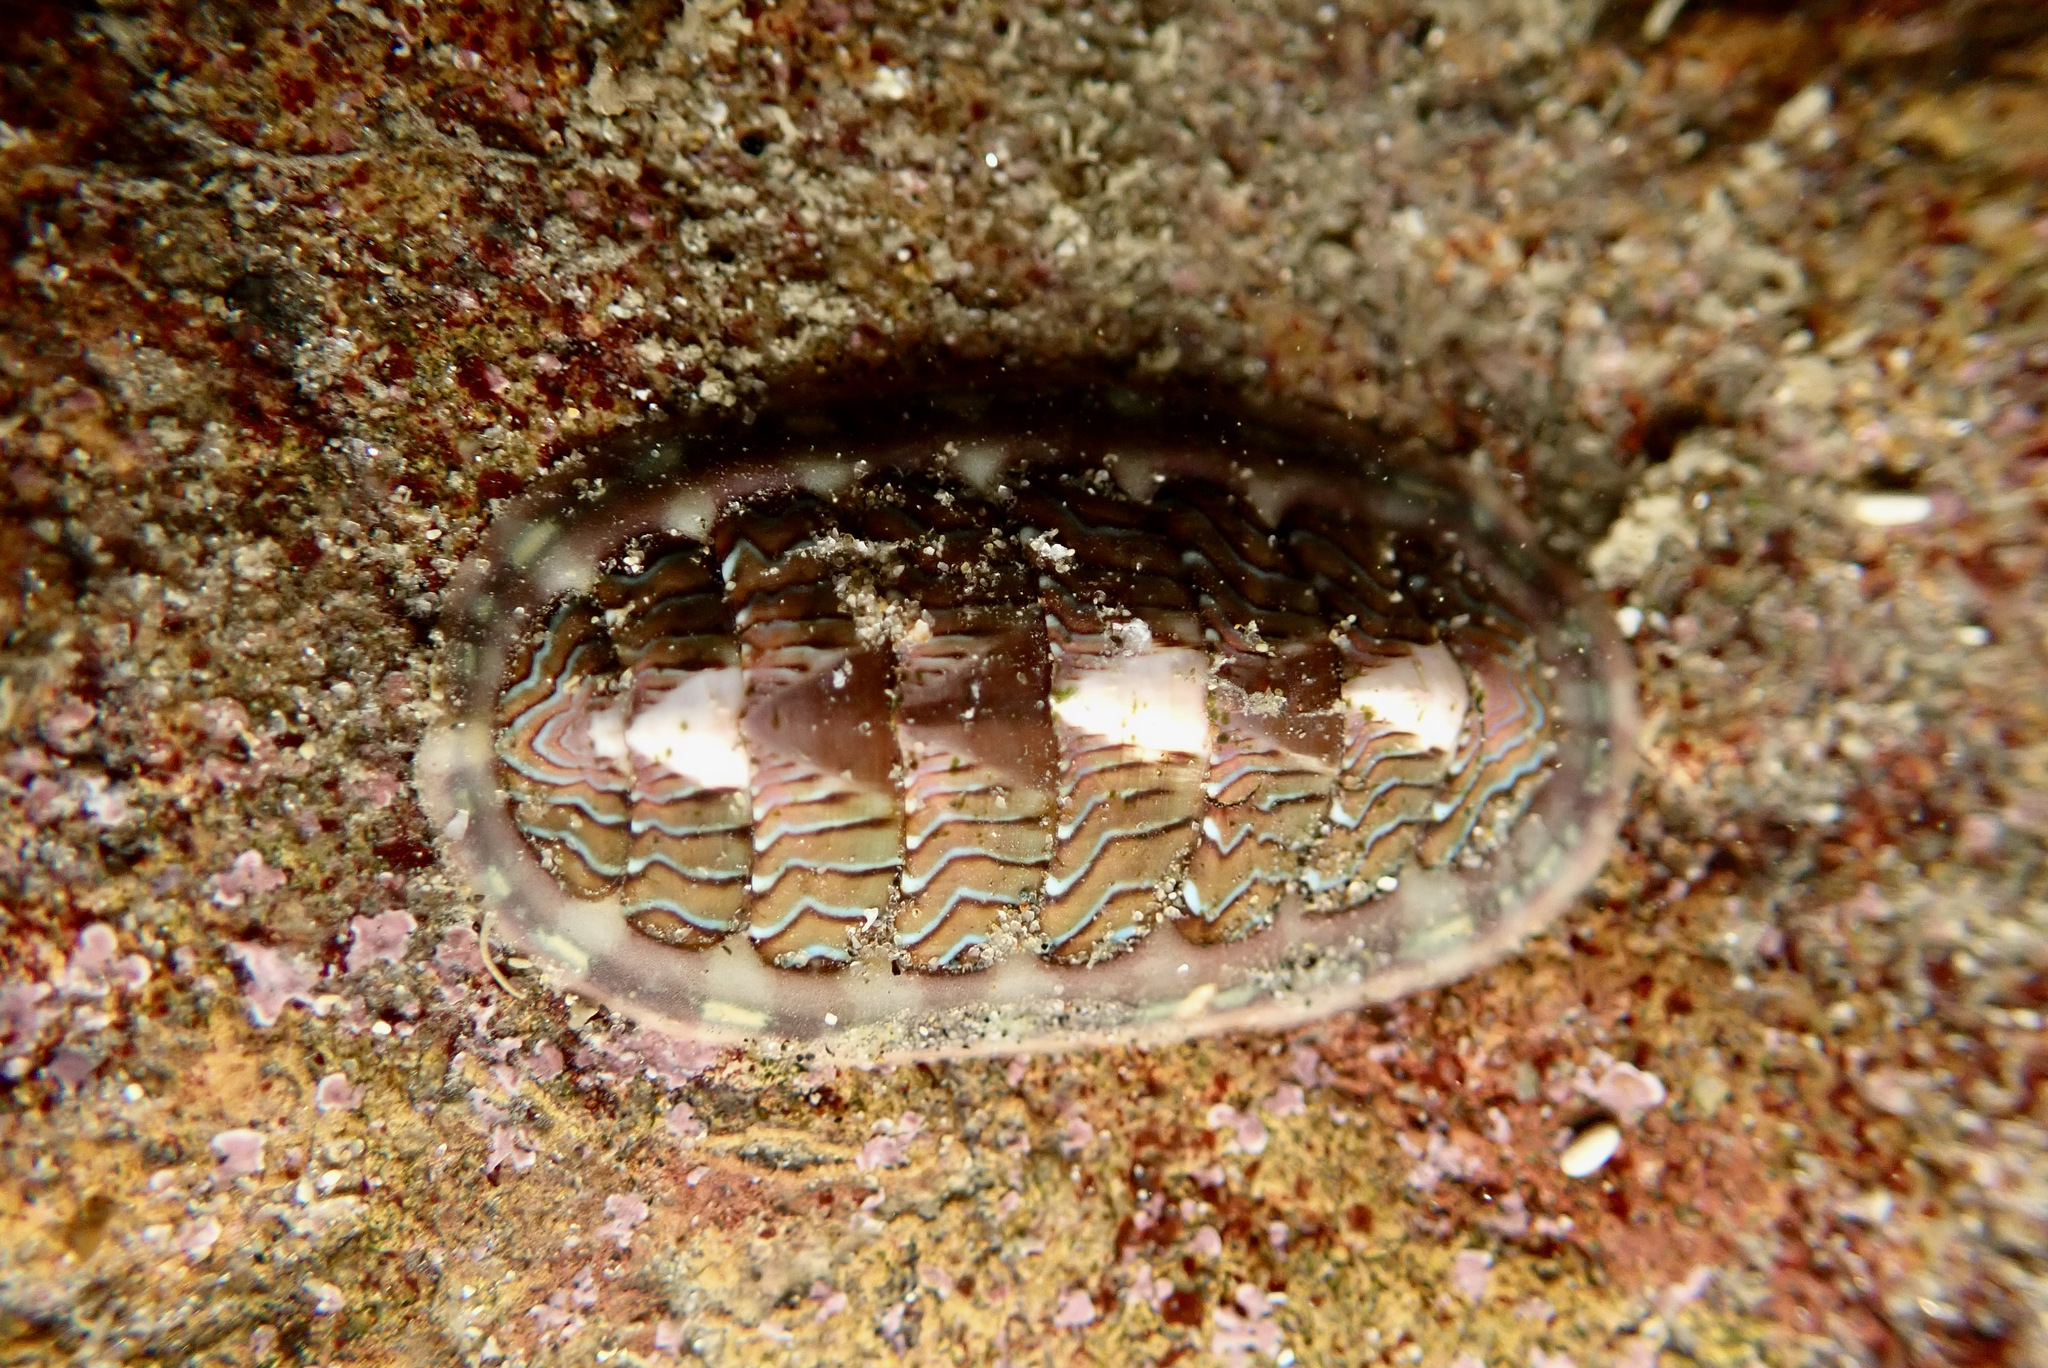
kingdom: Animalia
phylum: Mollusca
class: Polyplacophora
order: Chitonida
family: Tonicellidae
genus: Tonicella
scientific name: Tonicella lokii
